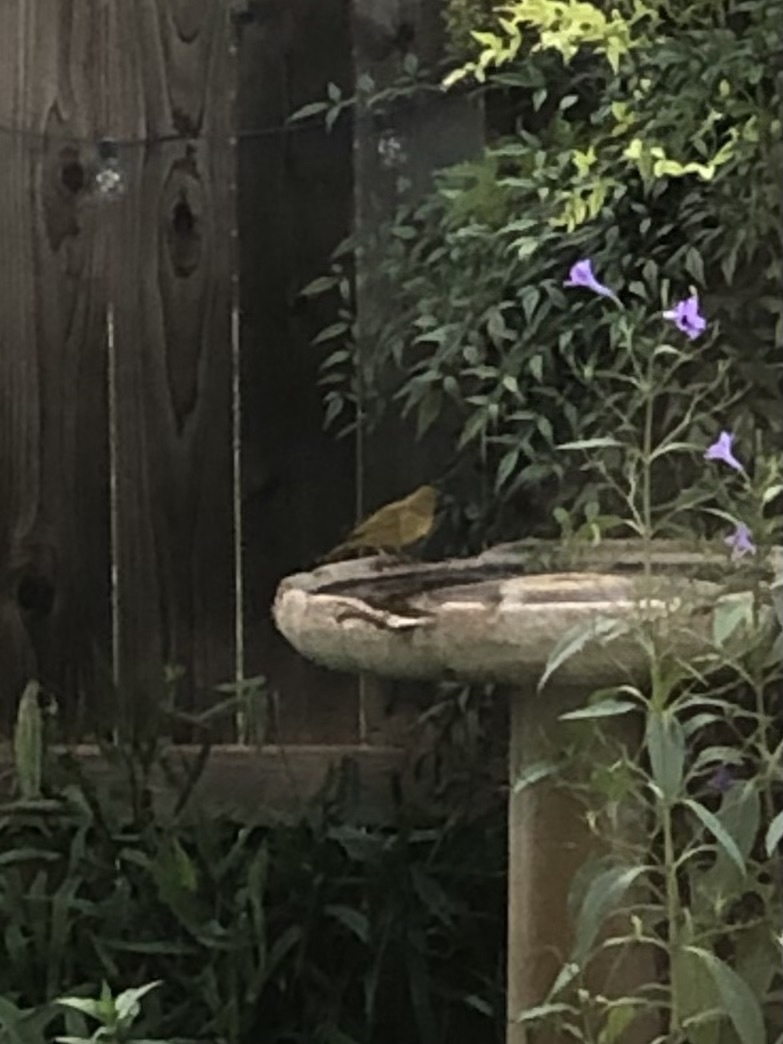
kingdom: Animalia
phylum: Chordata
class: Aves
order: Passeriformes
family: Cardinalidae
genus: Piranga
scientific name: Piranga rubra
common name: Summer tanager
